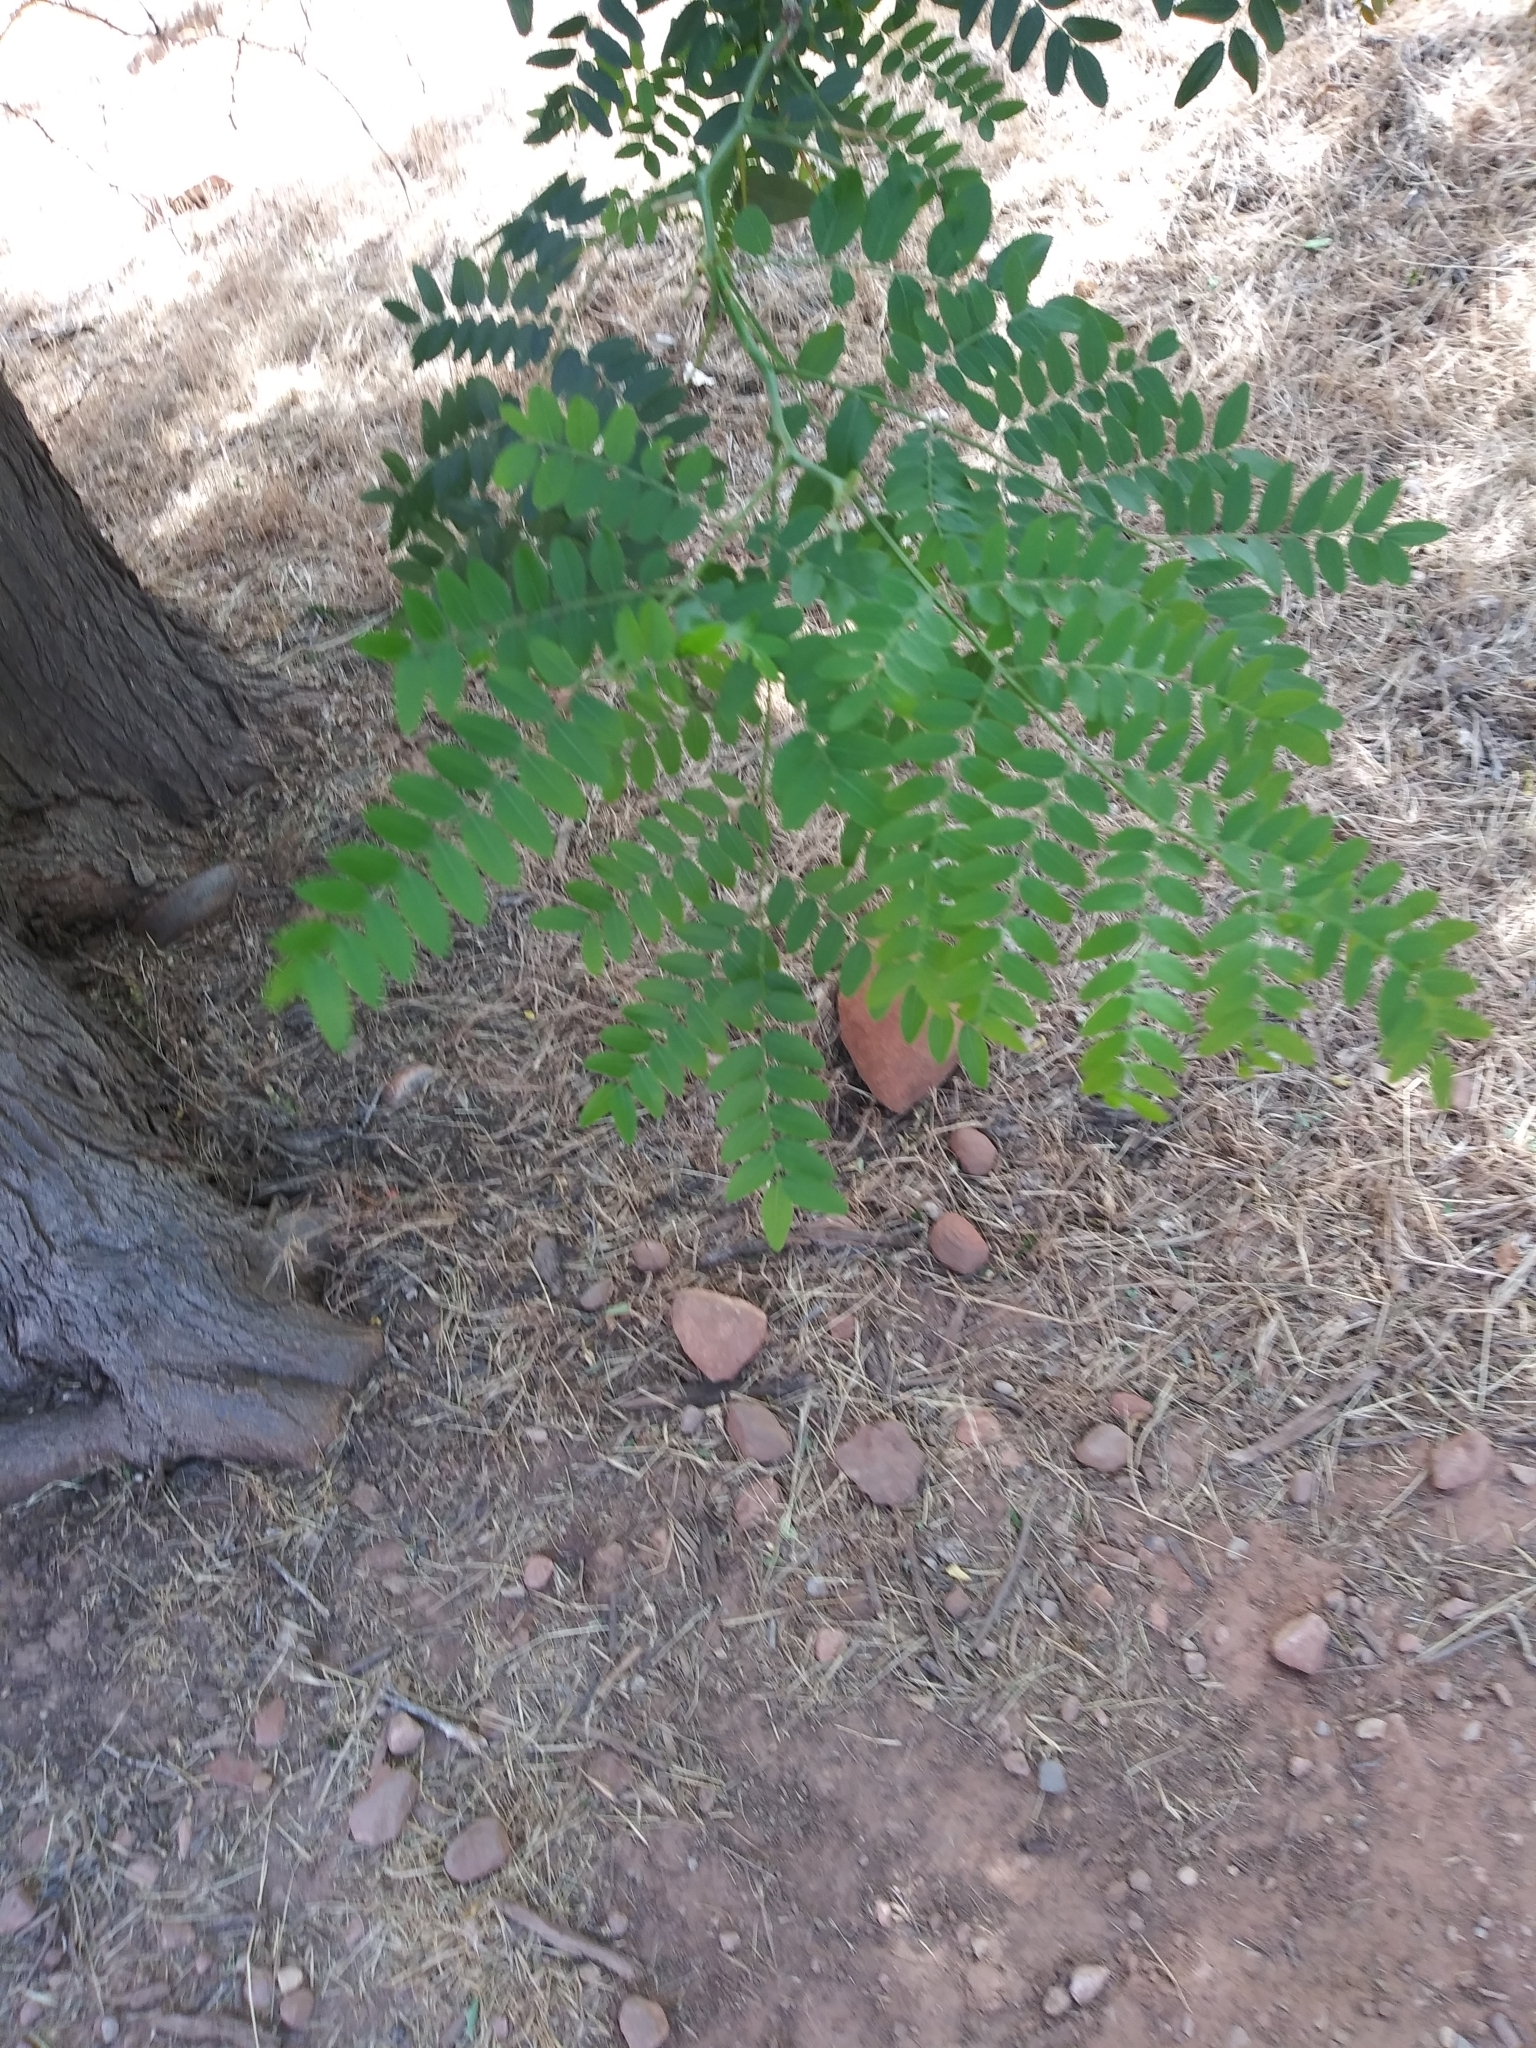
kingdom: Plantae
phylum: Tracheophyta
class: Magnoliopsida
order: Fabales
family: Fabaceae
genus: Gleditsia
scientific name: Gleditsia triacanthos
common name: Common honeylocust
